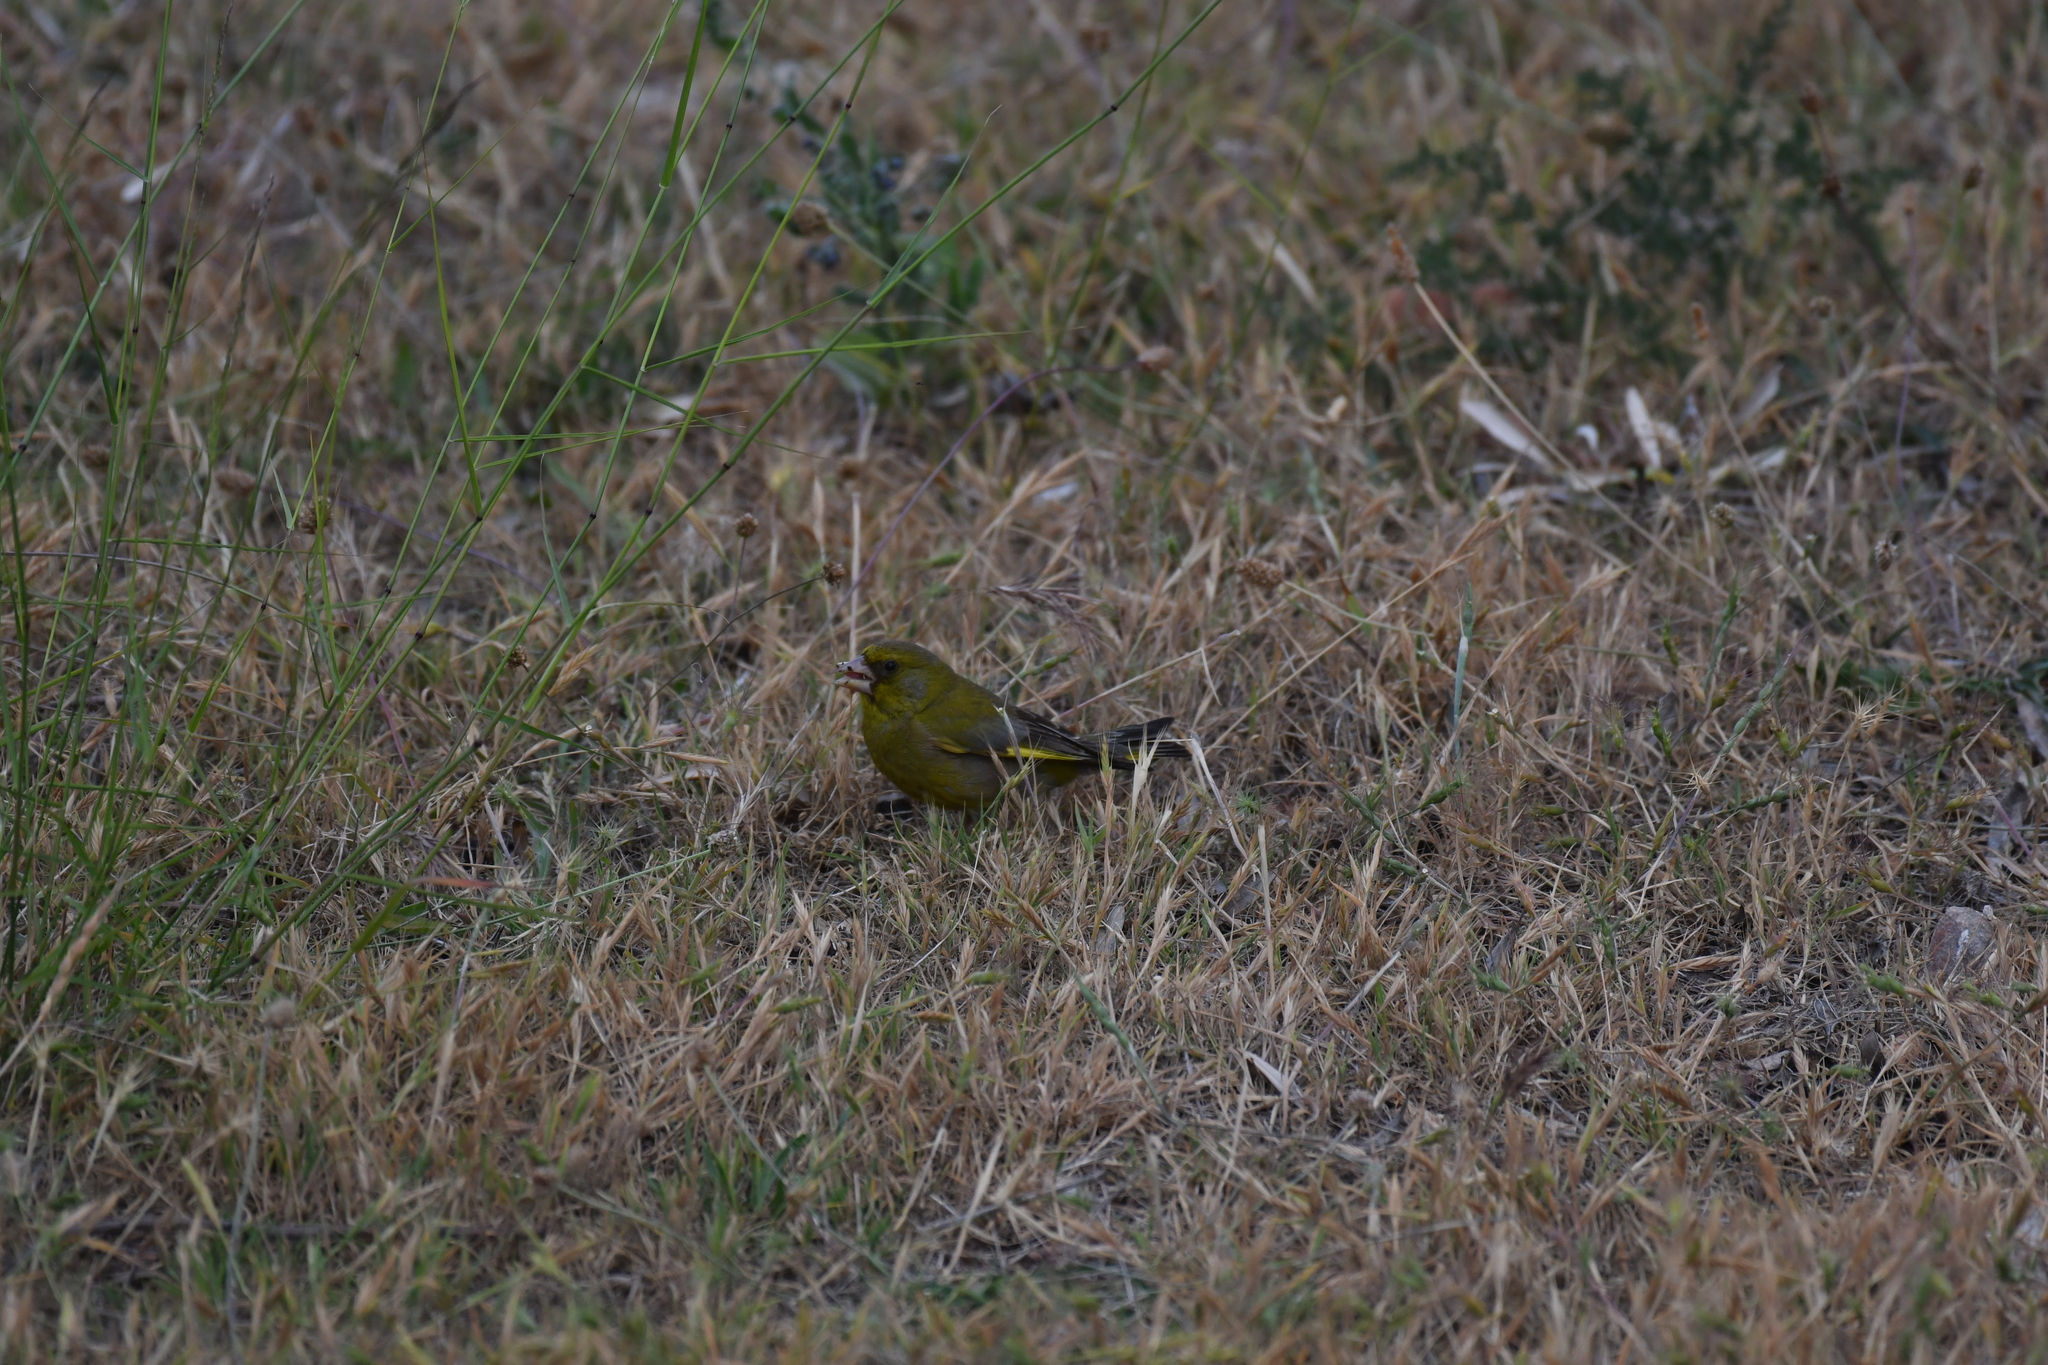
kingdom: Plantae
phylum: Tracheophyta
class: Liliopsida
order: Poales
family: Poaceae
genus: Chloris
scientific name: Chloris chloris
